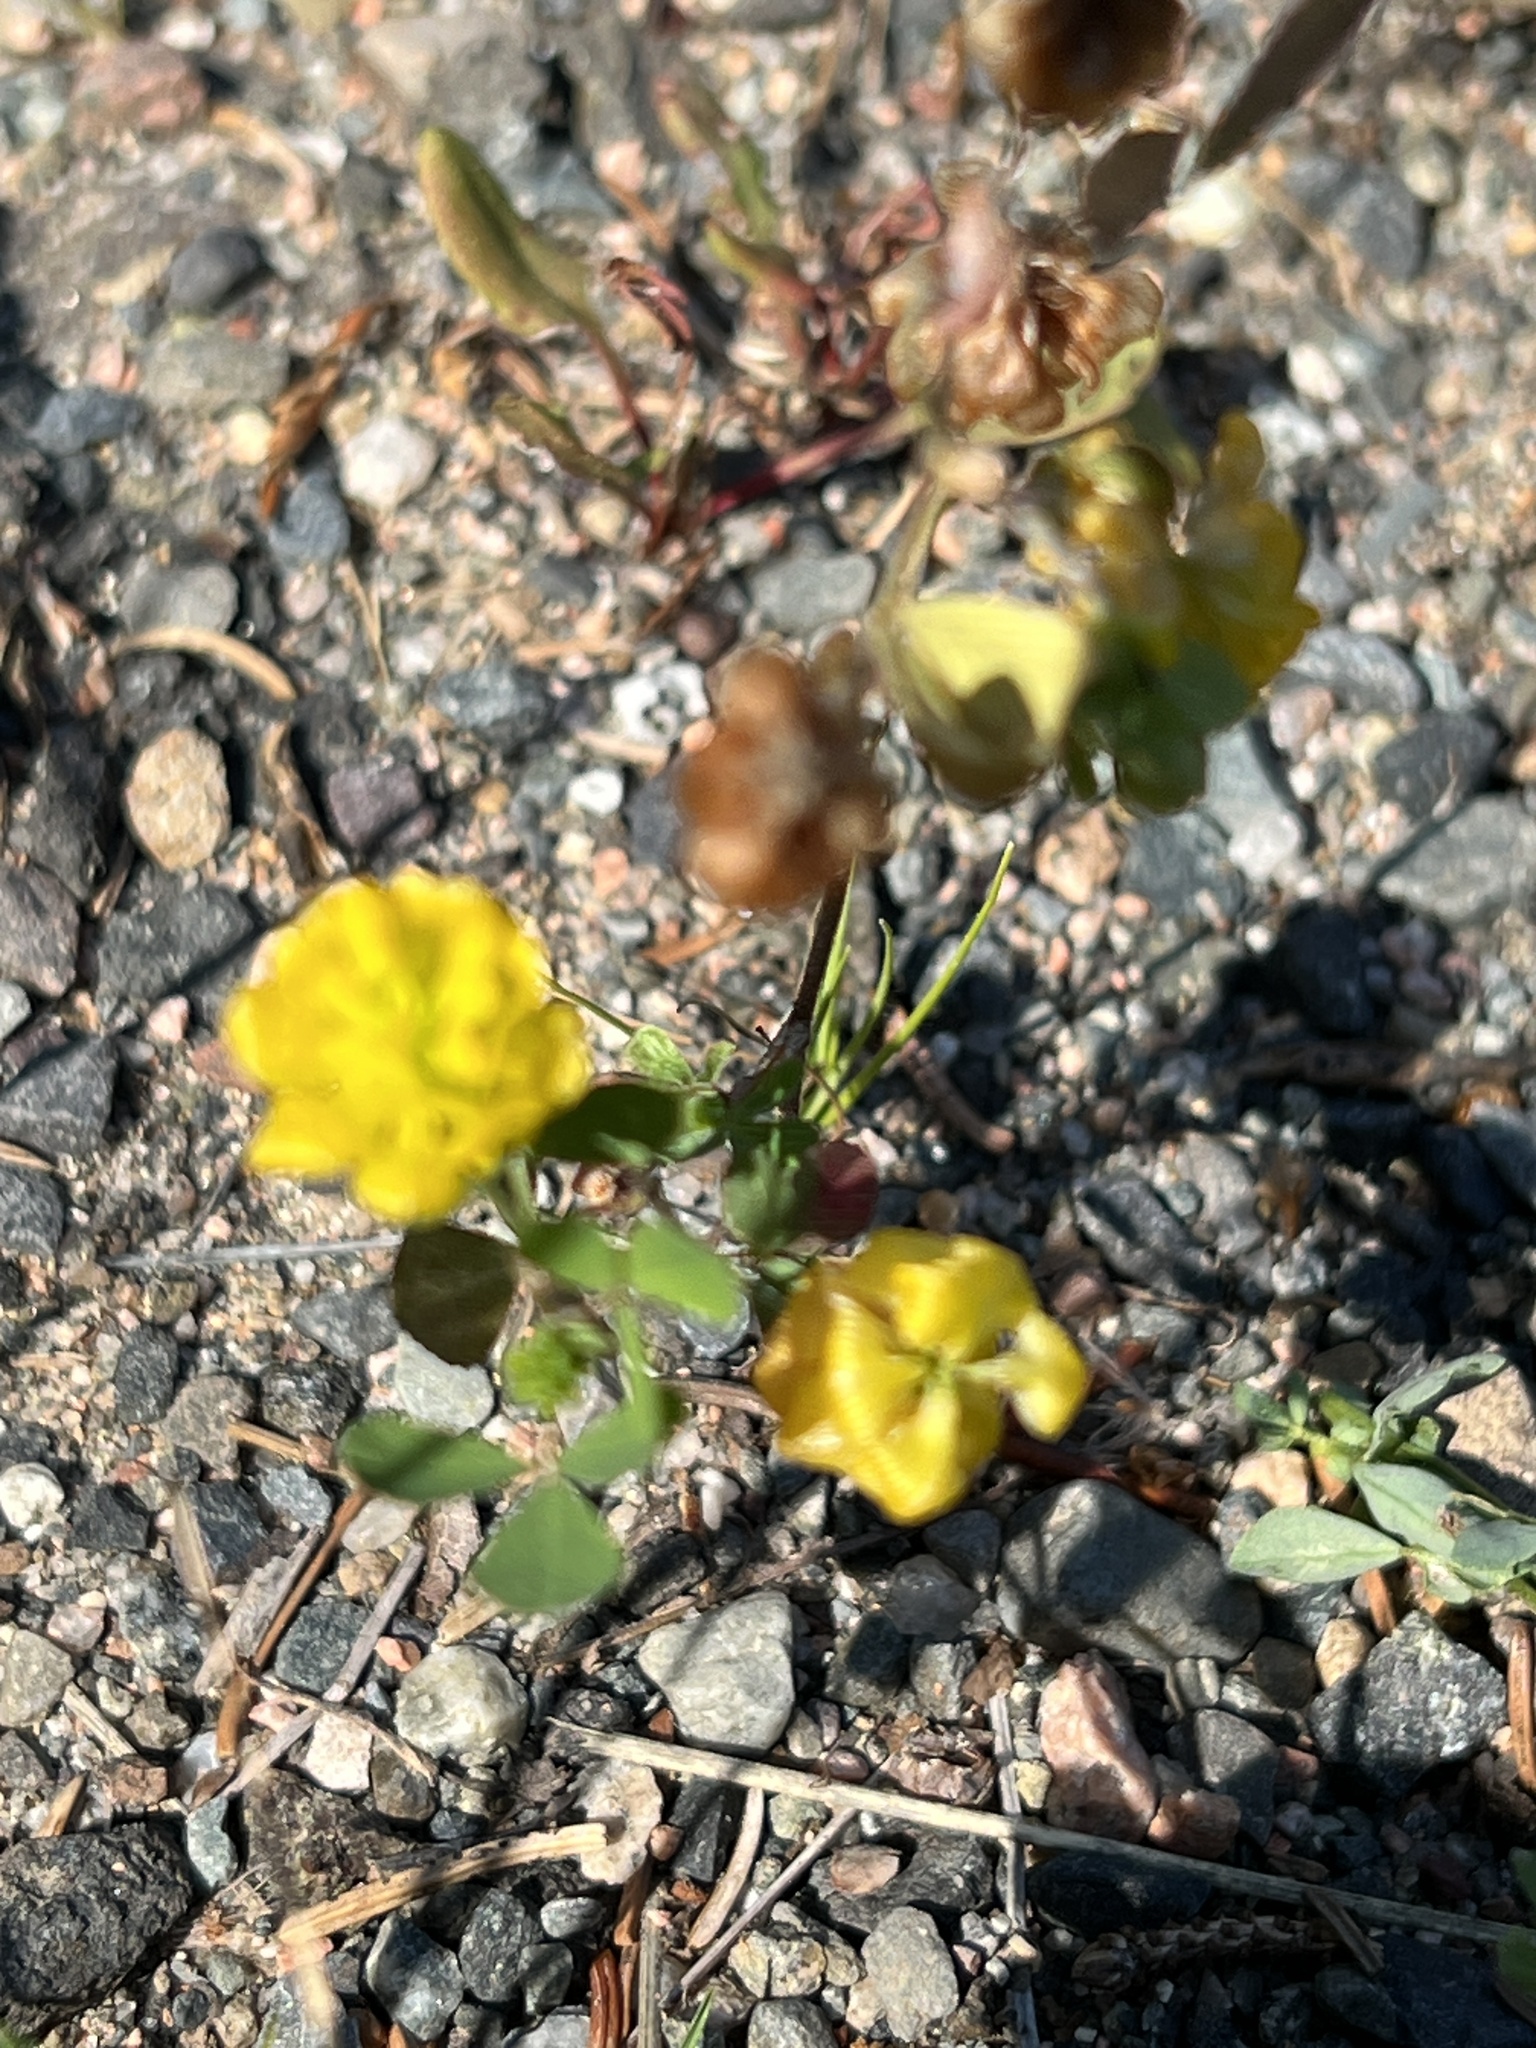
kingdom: Plantae
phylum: Tracheophyta
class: Magnoliopsida
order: Fabales
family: Fabaceae
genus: Trifolium
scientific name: Trifolium campestre
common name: Field clover
